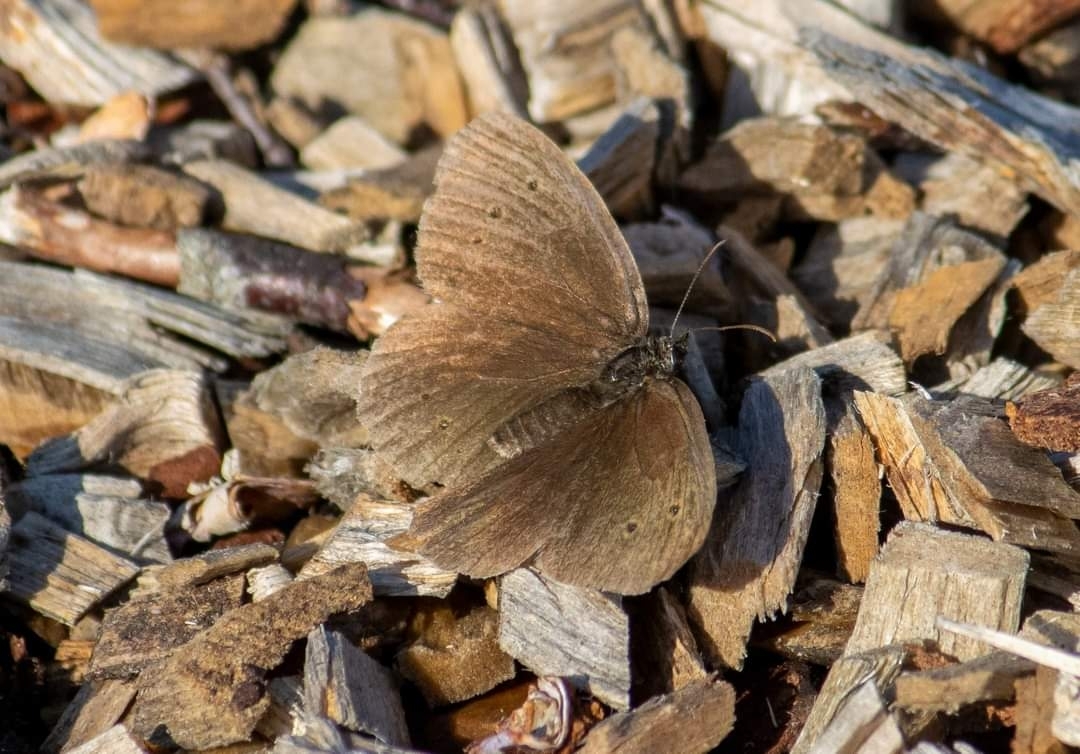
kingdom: Animalia
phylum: Arthropoda
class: Insecta
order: Lepidoptera
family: Nymphalidae
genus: Aphantopus
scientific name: Aphantopus hyperantus
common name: Ringlet
